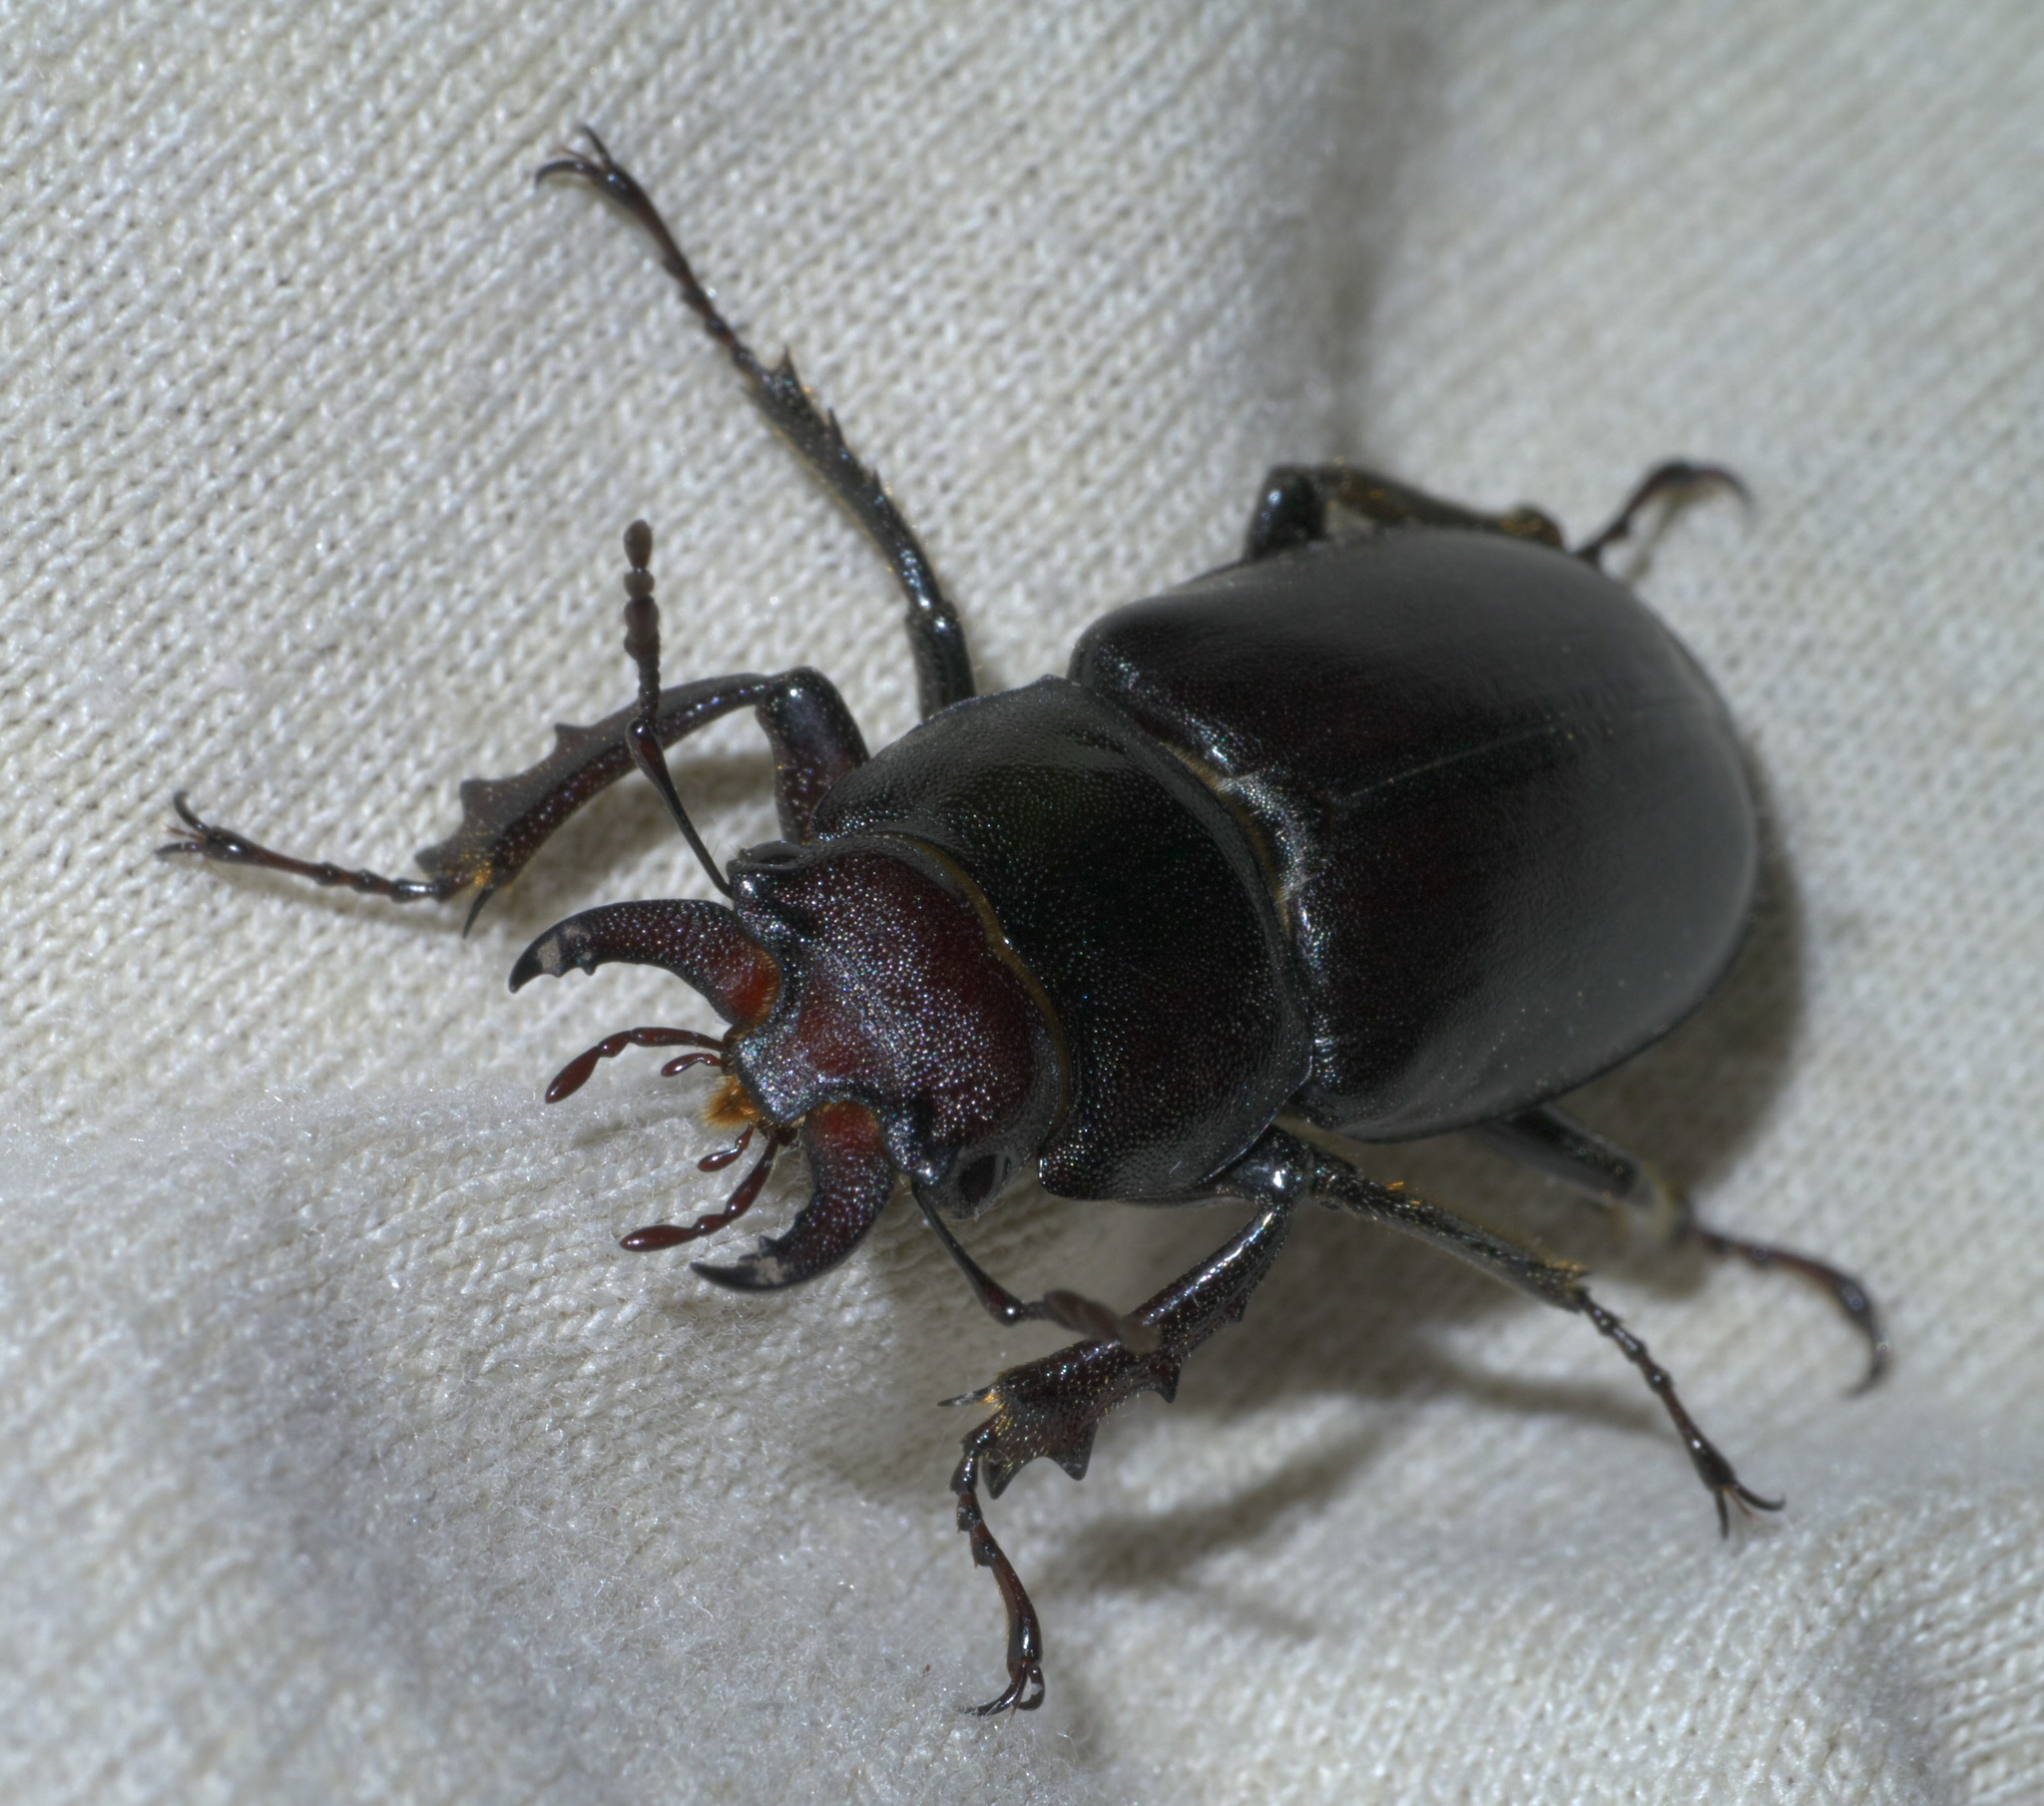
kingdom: Animalia
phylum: Arthropoda
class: Insecta
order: Coleoptera
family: Lucanidae
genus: Lucanus
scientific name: Lucanus placidus
